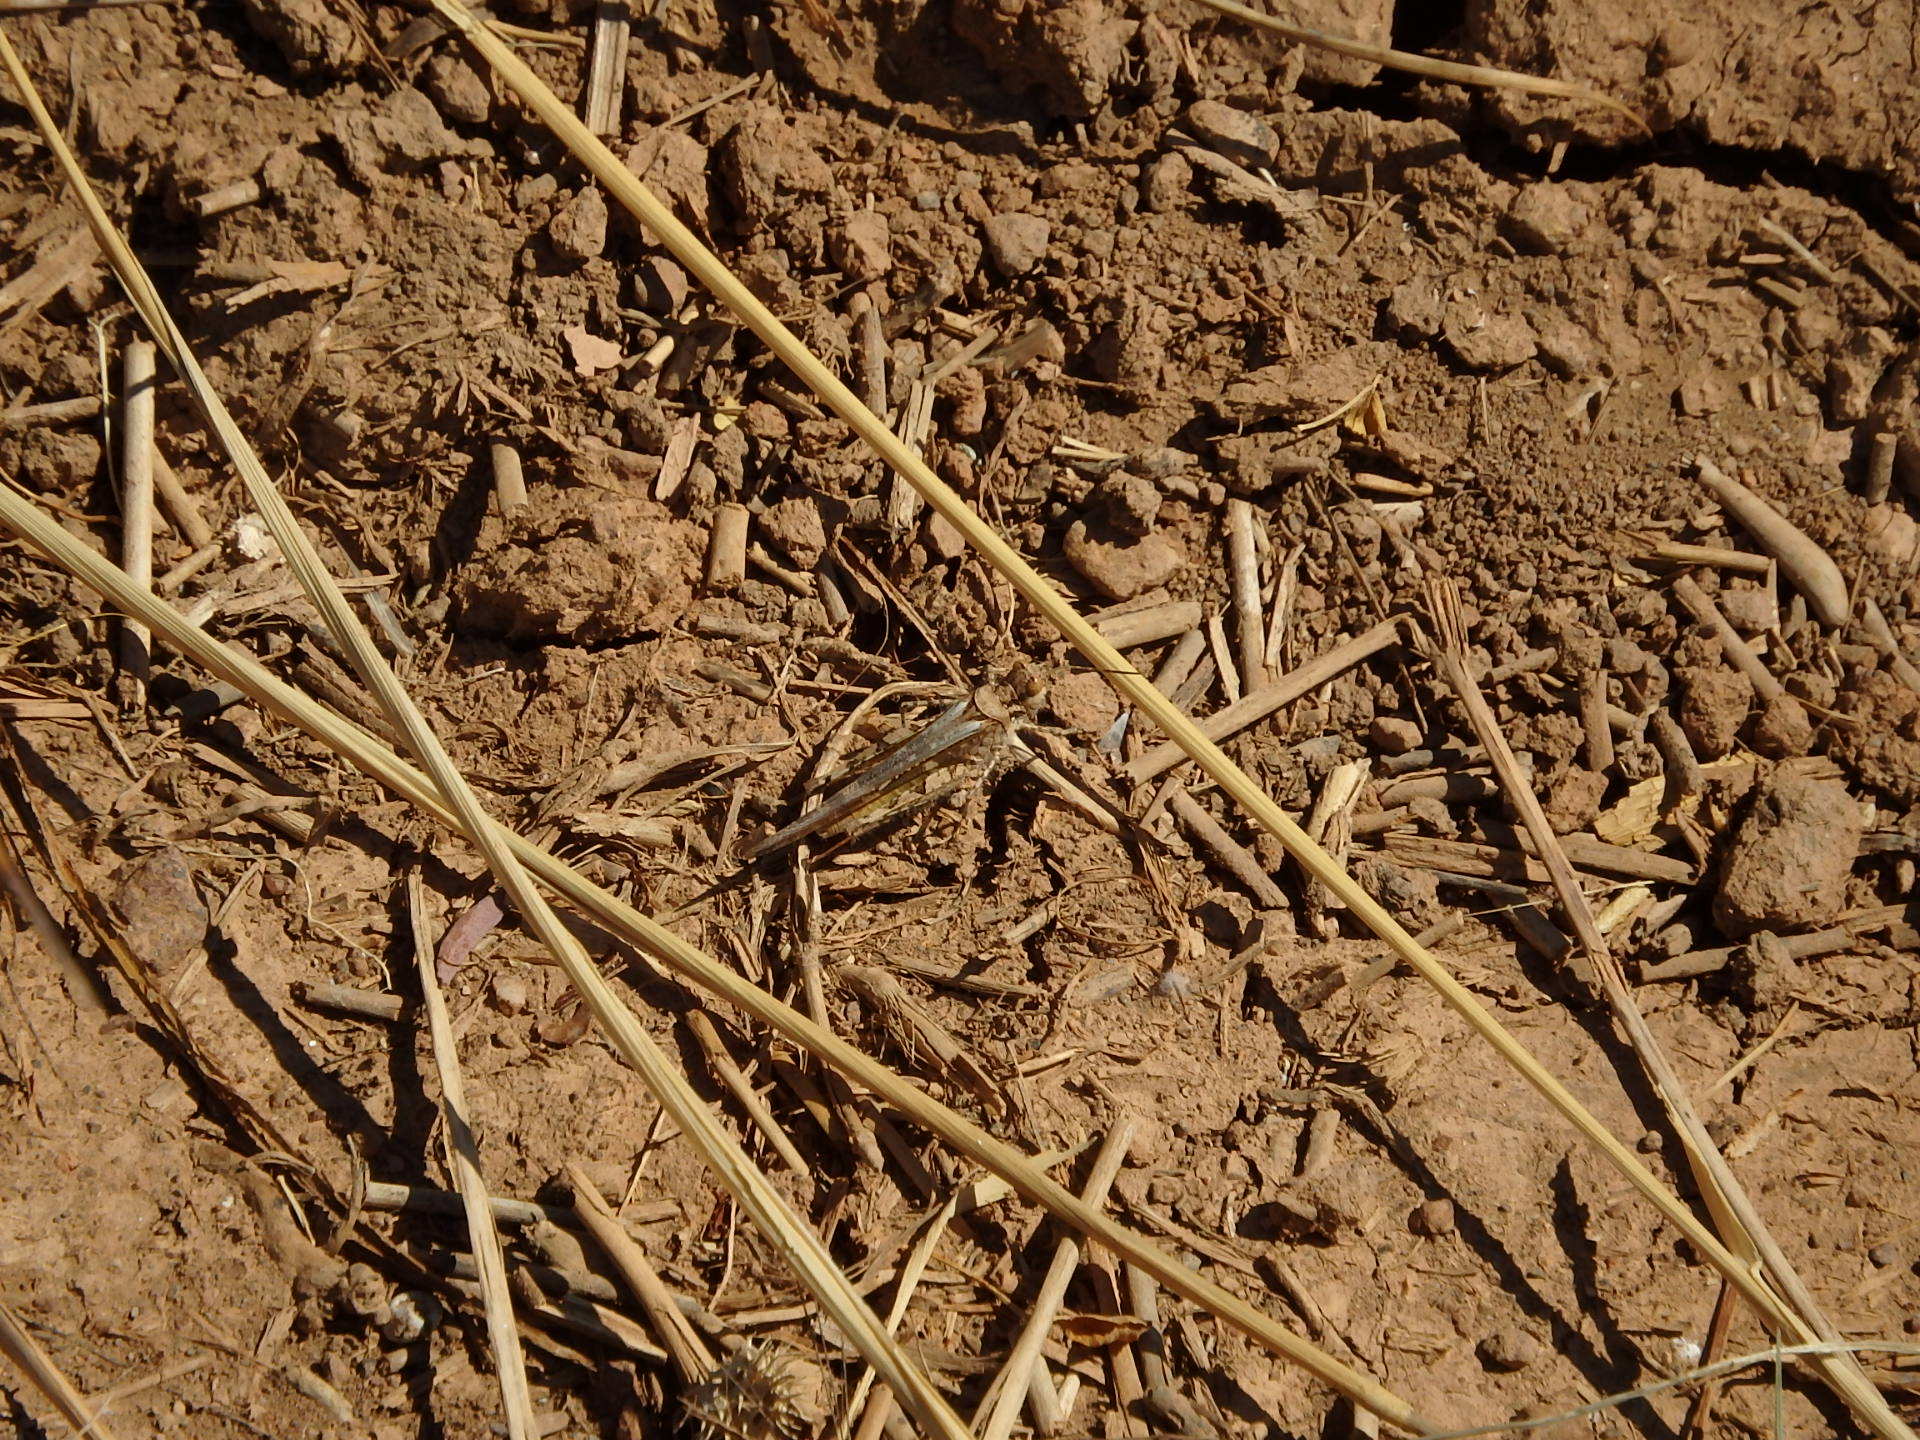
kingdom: Animalia
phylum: Arthropoda
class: Insecta
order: Orthoptera
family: Acrididae
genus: Acrotylus
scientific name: Acrotylus patruelis
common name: Slender burrowing grasshopper
